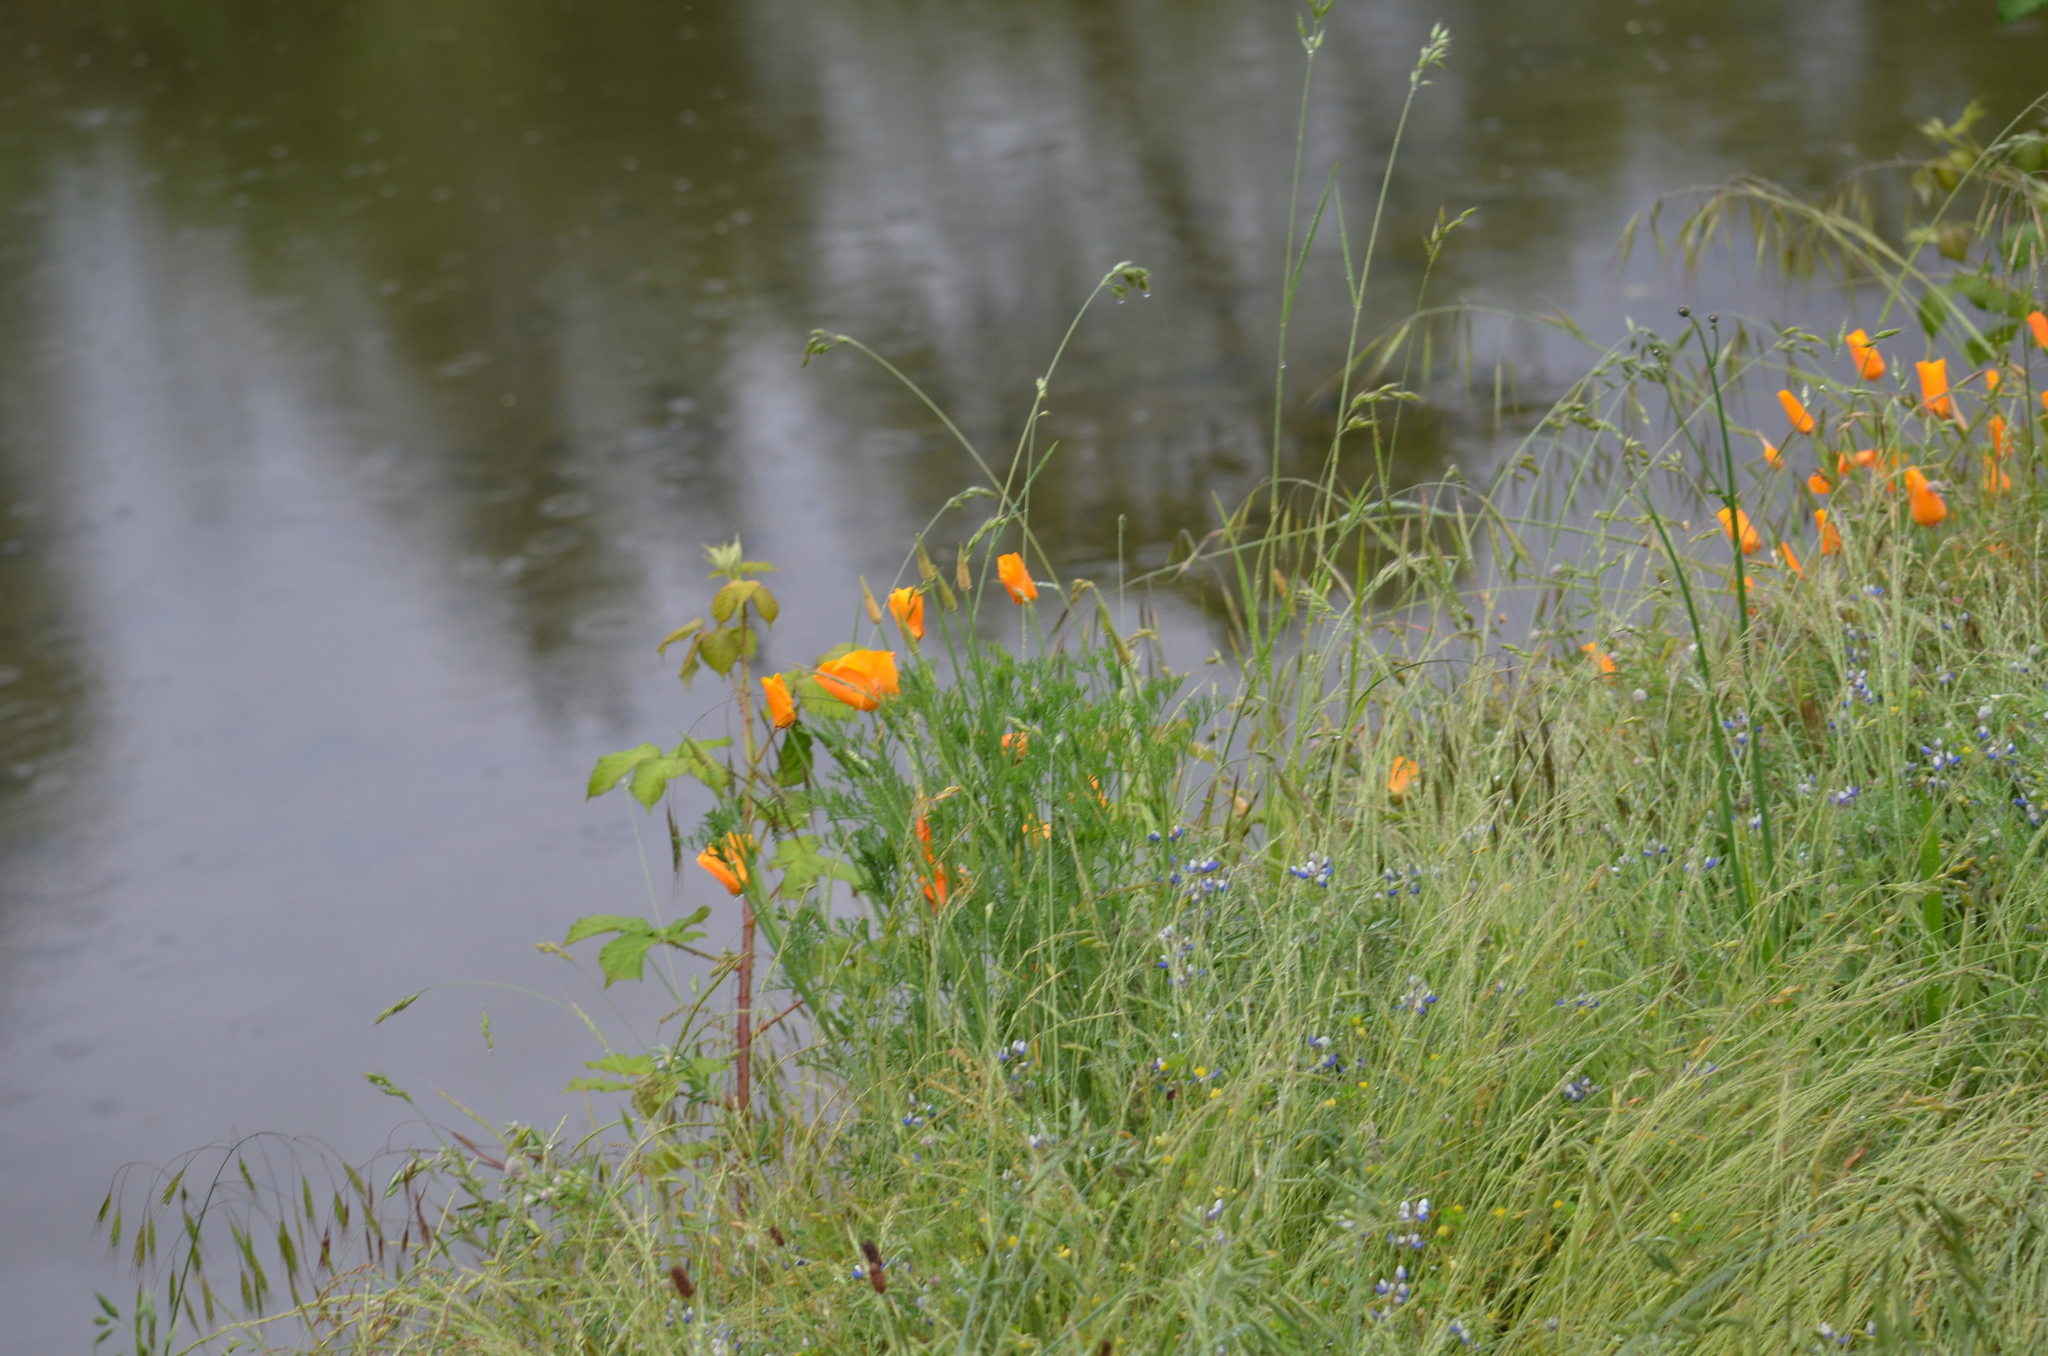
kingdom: Plantae
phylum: Tracheophyta
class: Magnoliopsida
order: Ranunculales
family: Papaveraceae
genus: Eschscholzia
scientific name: Eschscholzia californica
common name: California poppy
